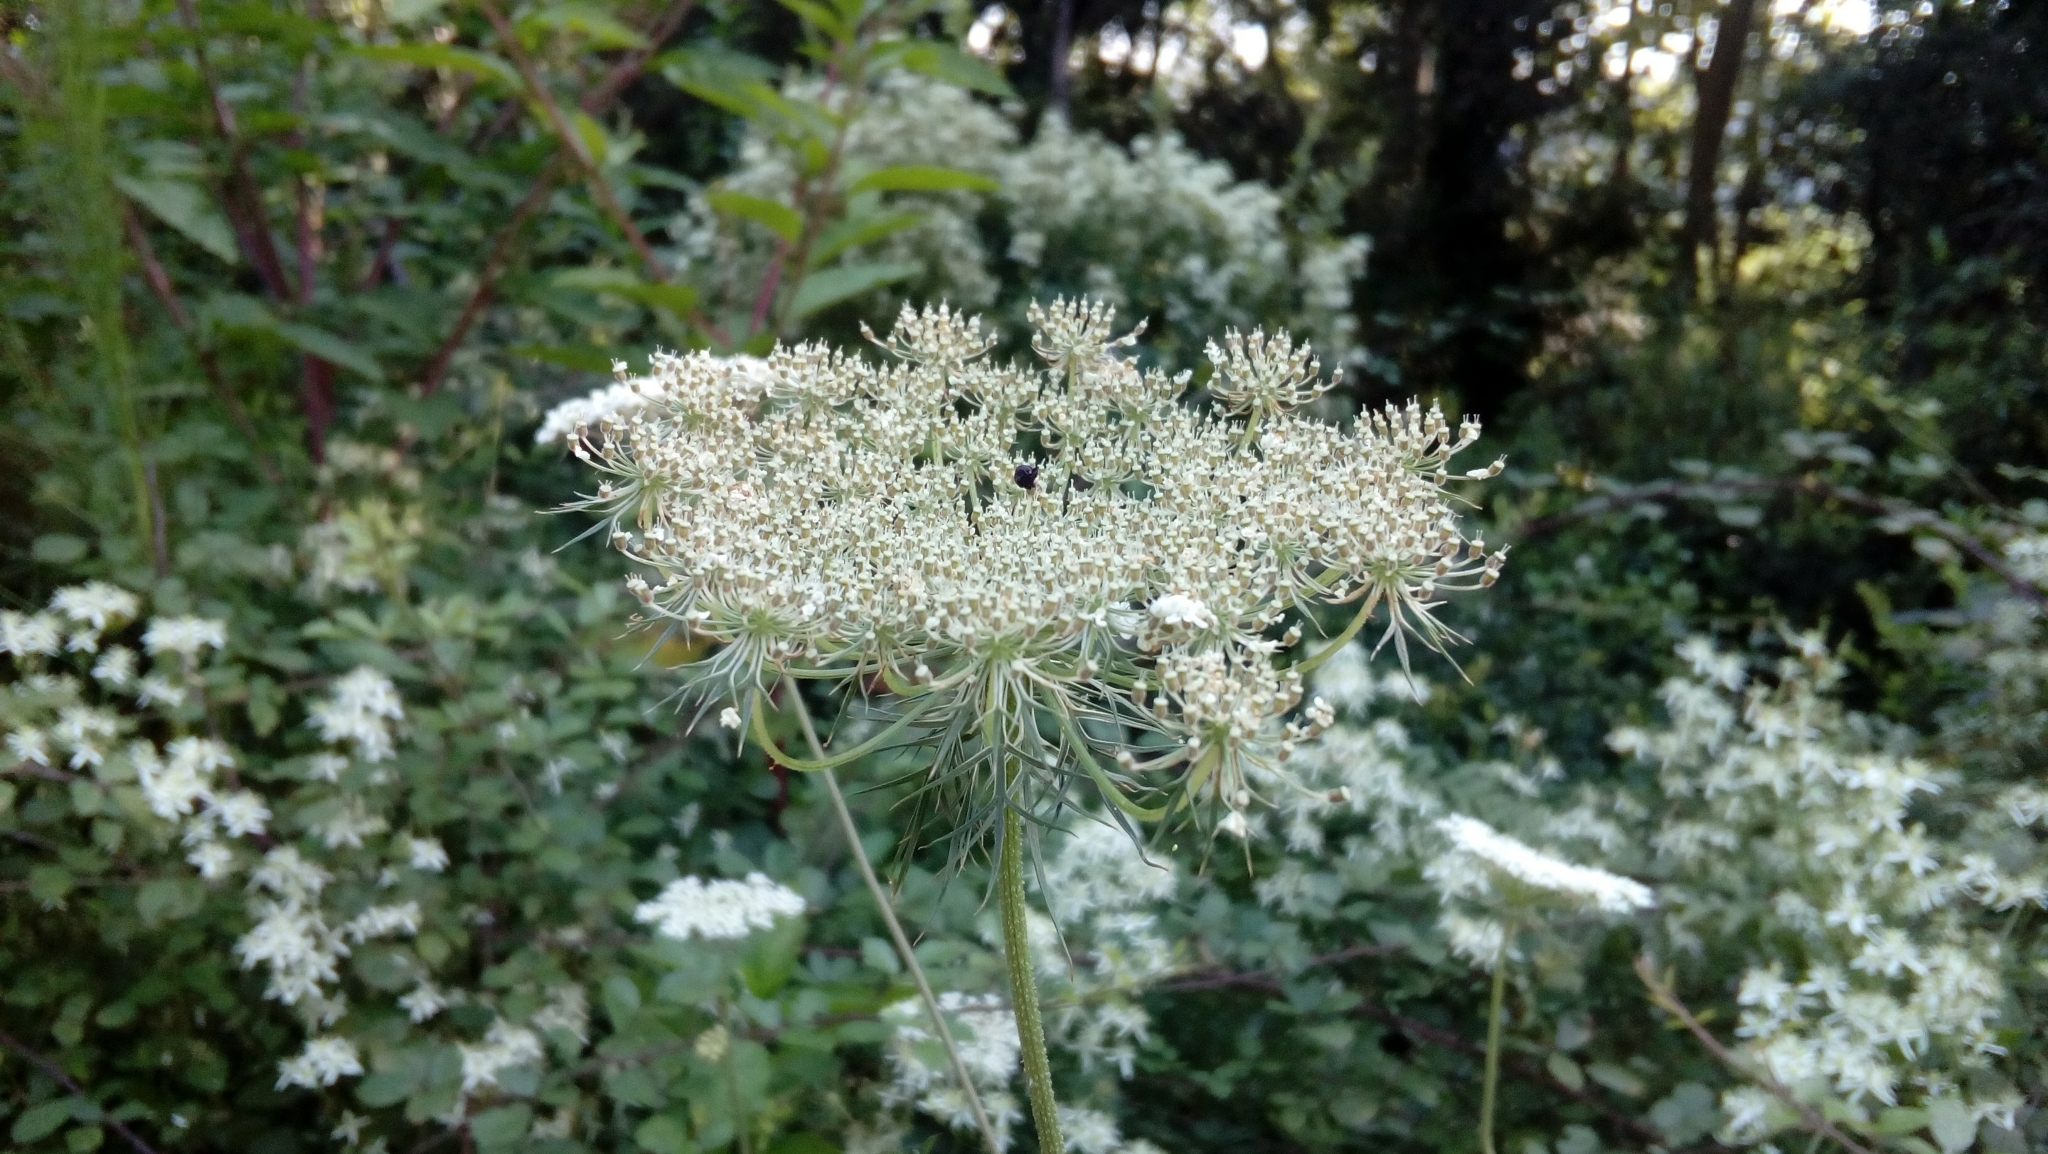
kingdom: Plantae
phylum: Tracheophyta
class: Magnoliopsida
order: Apiales
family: Apiaceae
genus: Daucus
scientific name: Daucus carota
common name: Wild carrot
